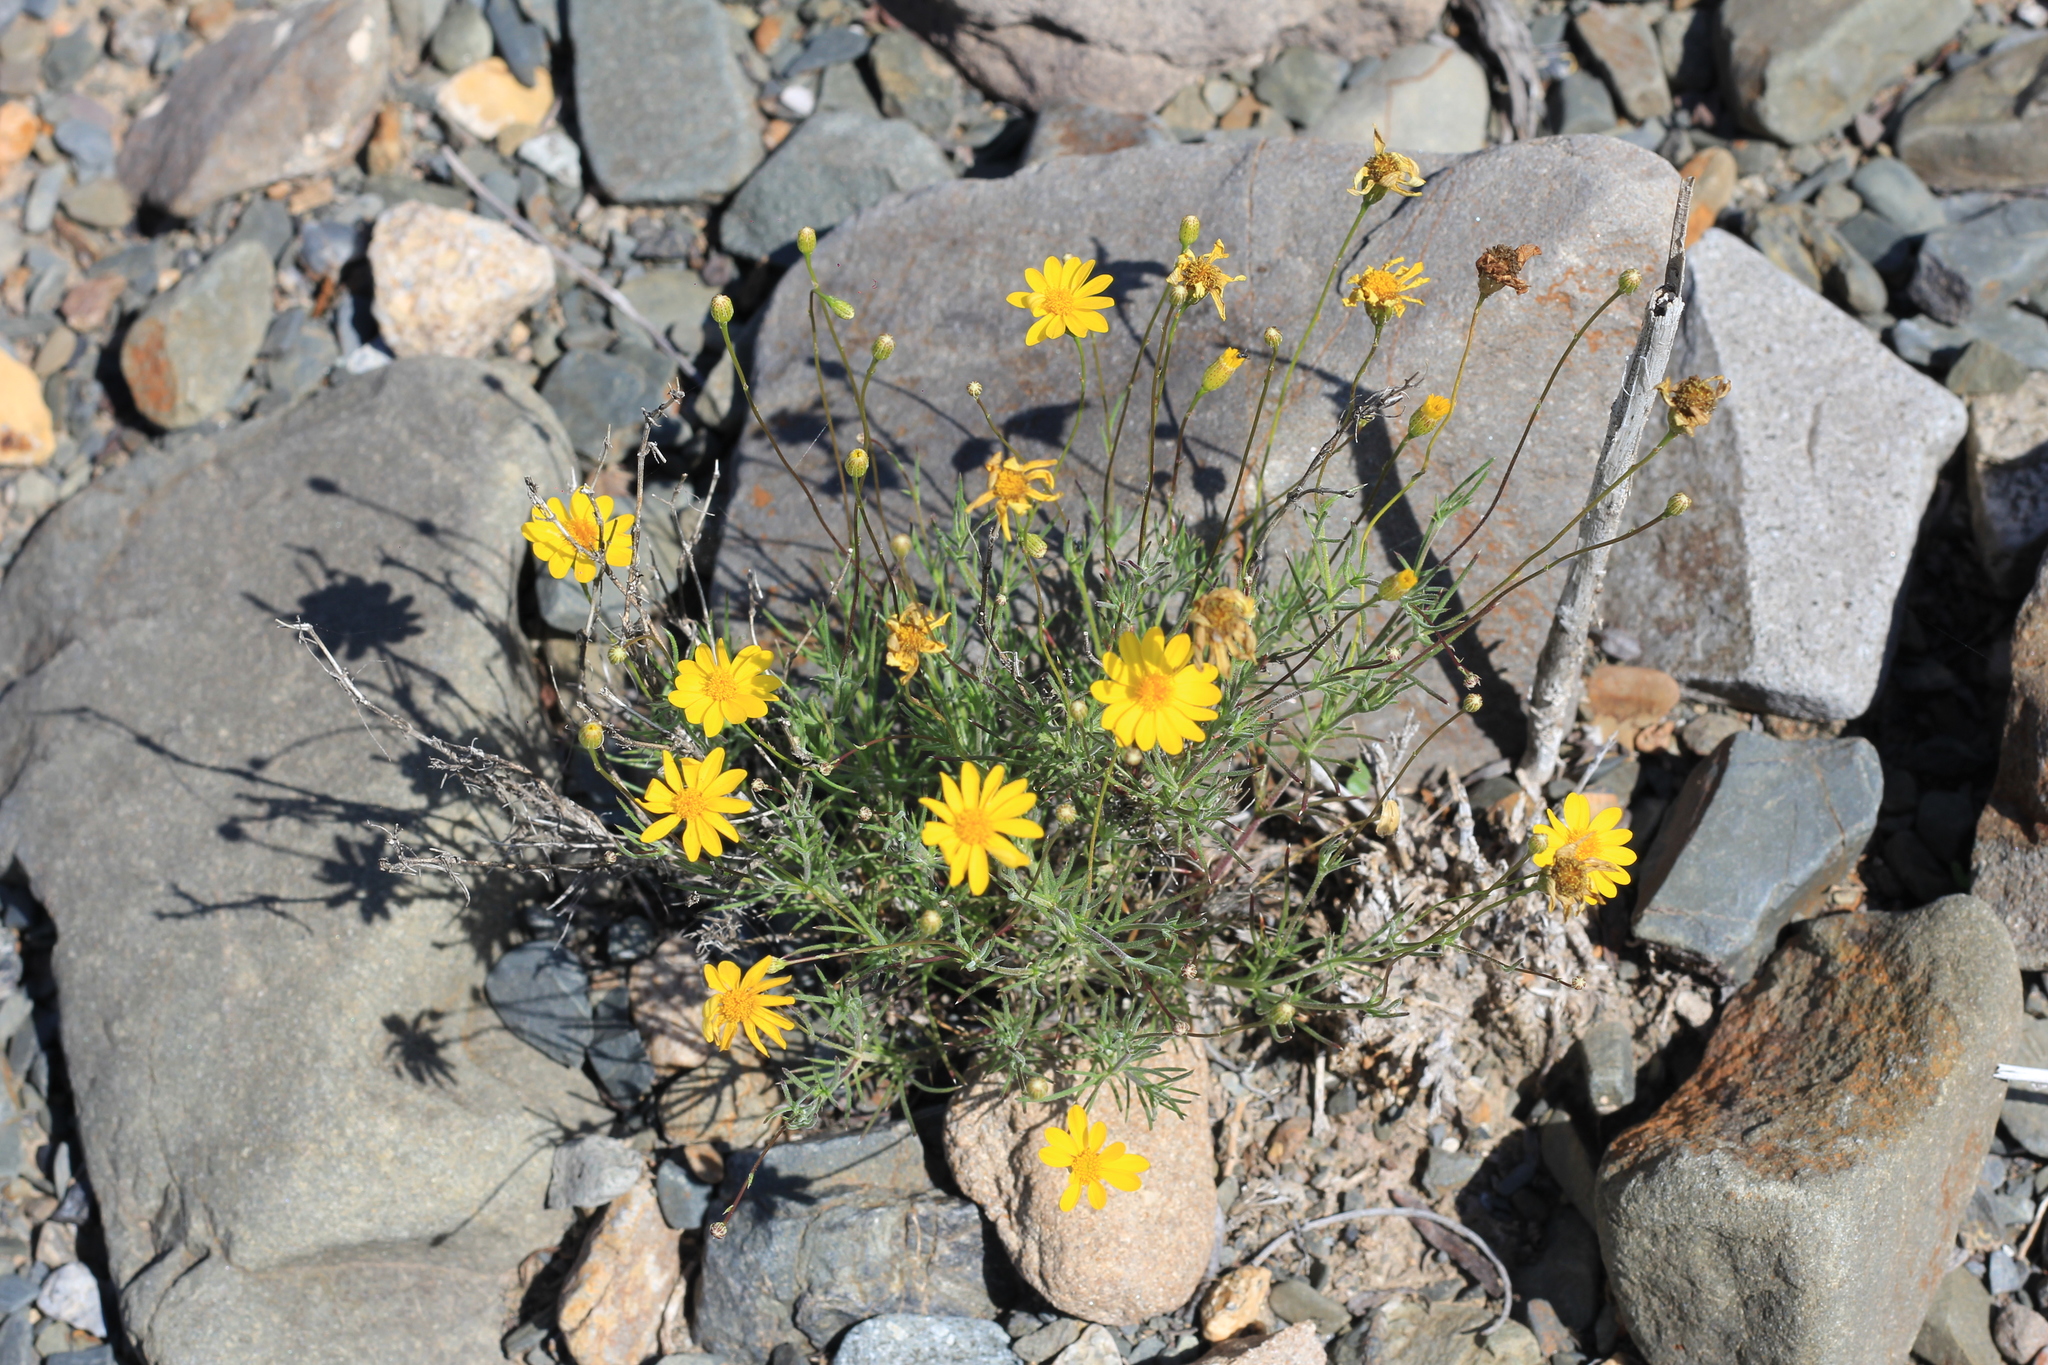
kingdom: Plantae
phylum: Tracheophyta
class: Magnoliopsida
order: Asterales
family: Asteraceae
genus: Thymophylla
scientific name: Thymophylla pentachaeta
